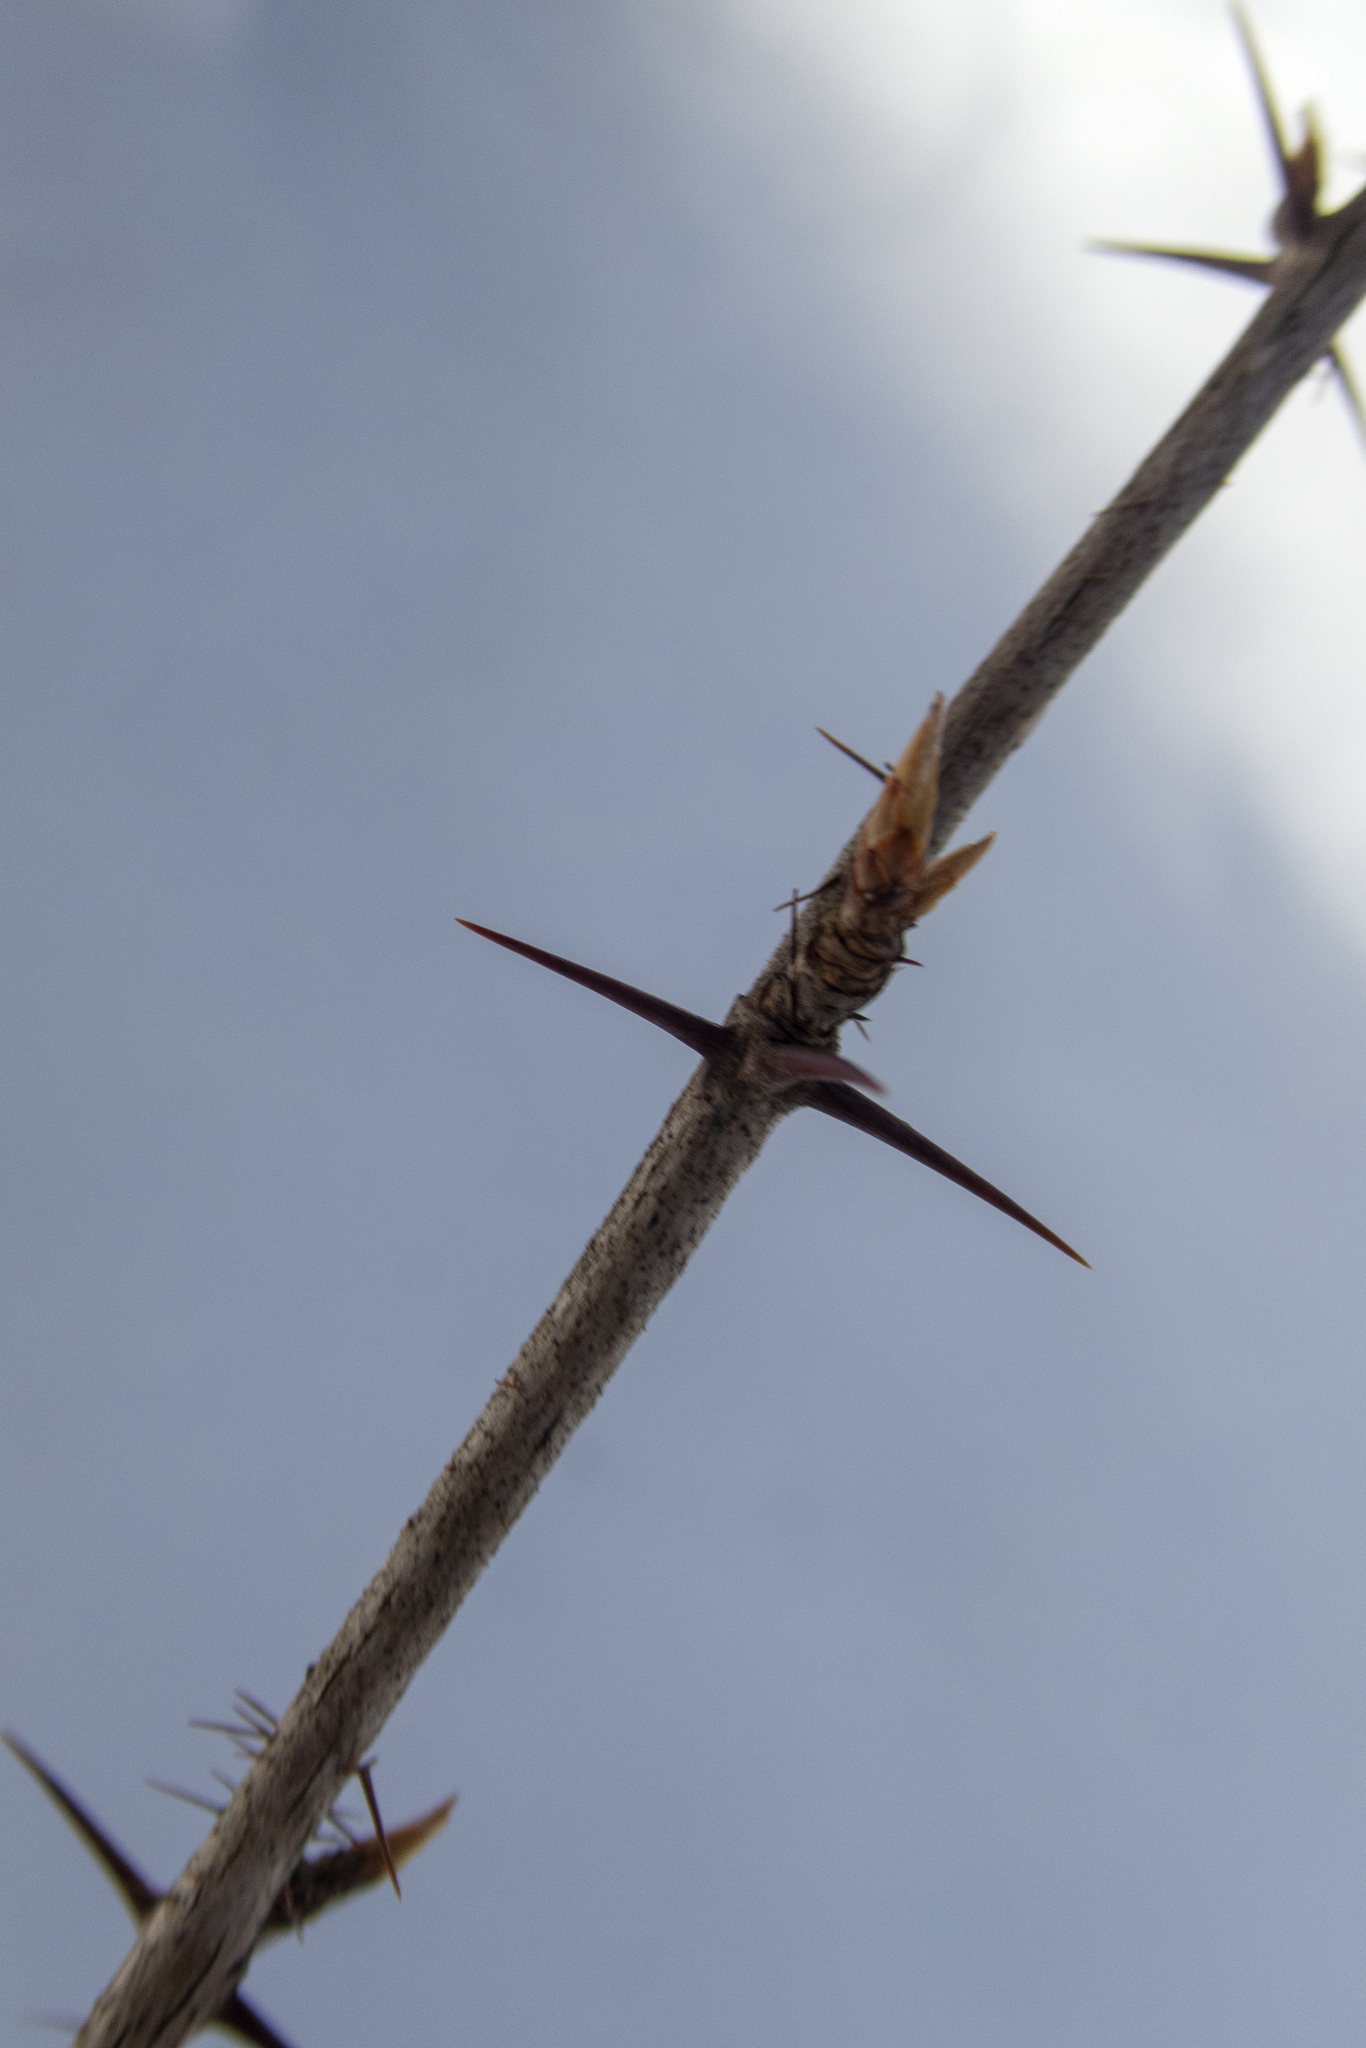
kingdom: Plantae
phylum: Tracheophyta
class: Magnoliopsida
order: Saxifragales
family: Grossulariaceae
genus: Ribes
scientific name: Ribes cynosbati
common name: American gooseberry
